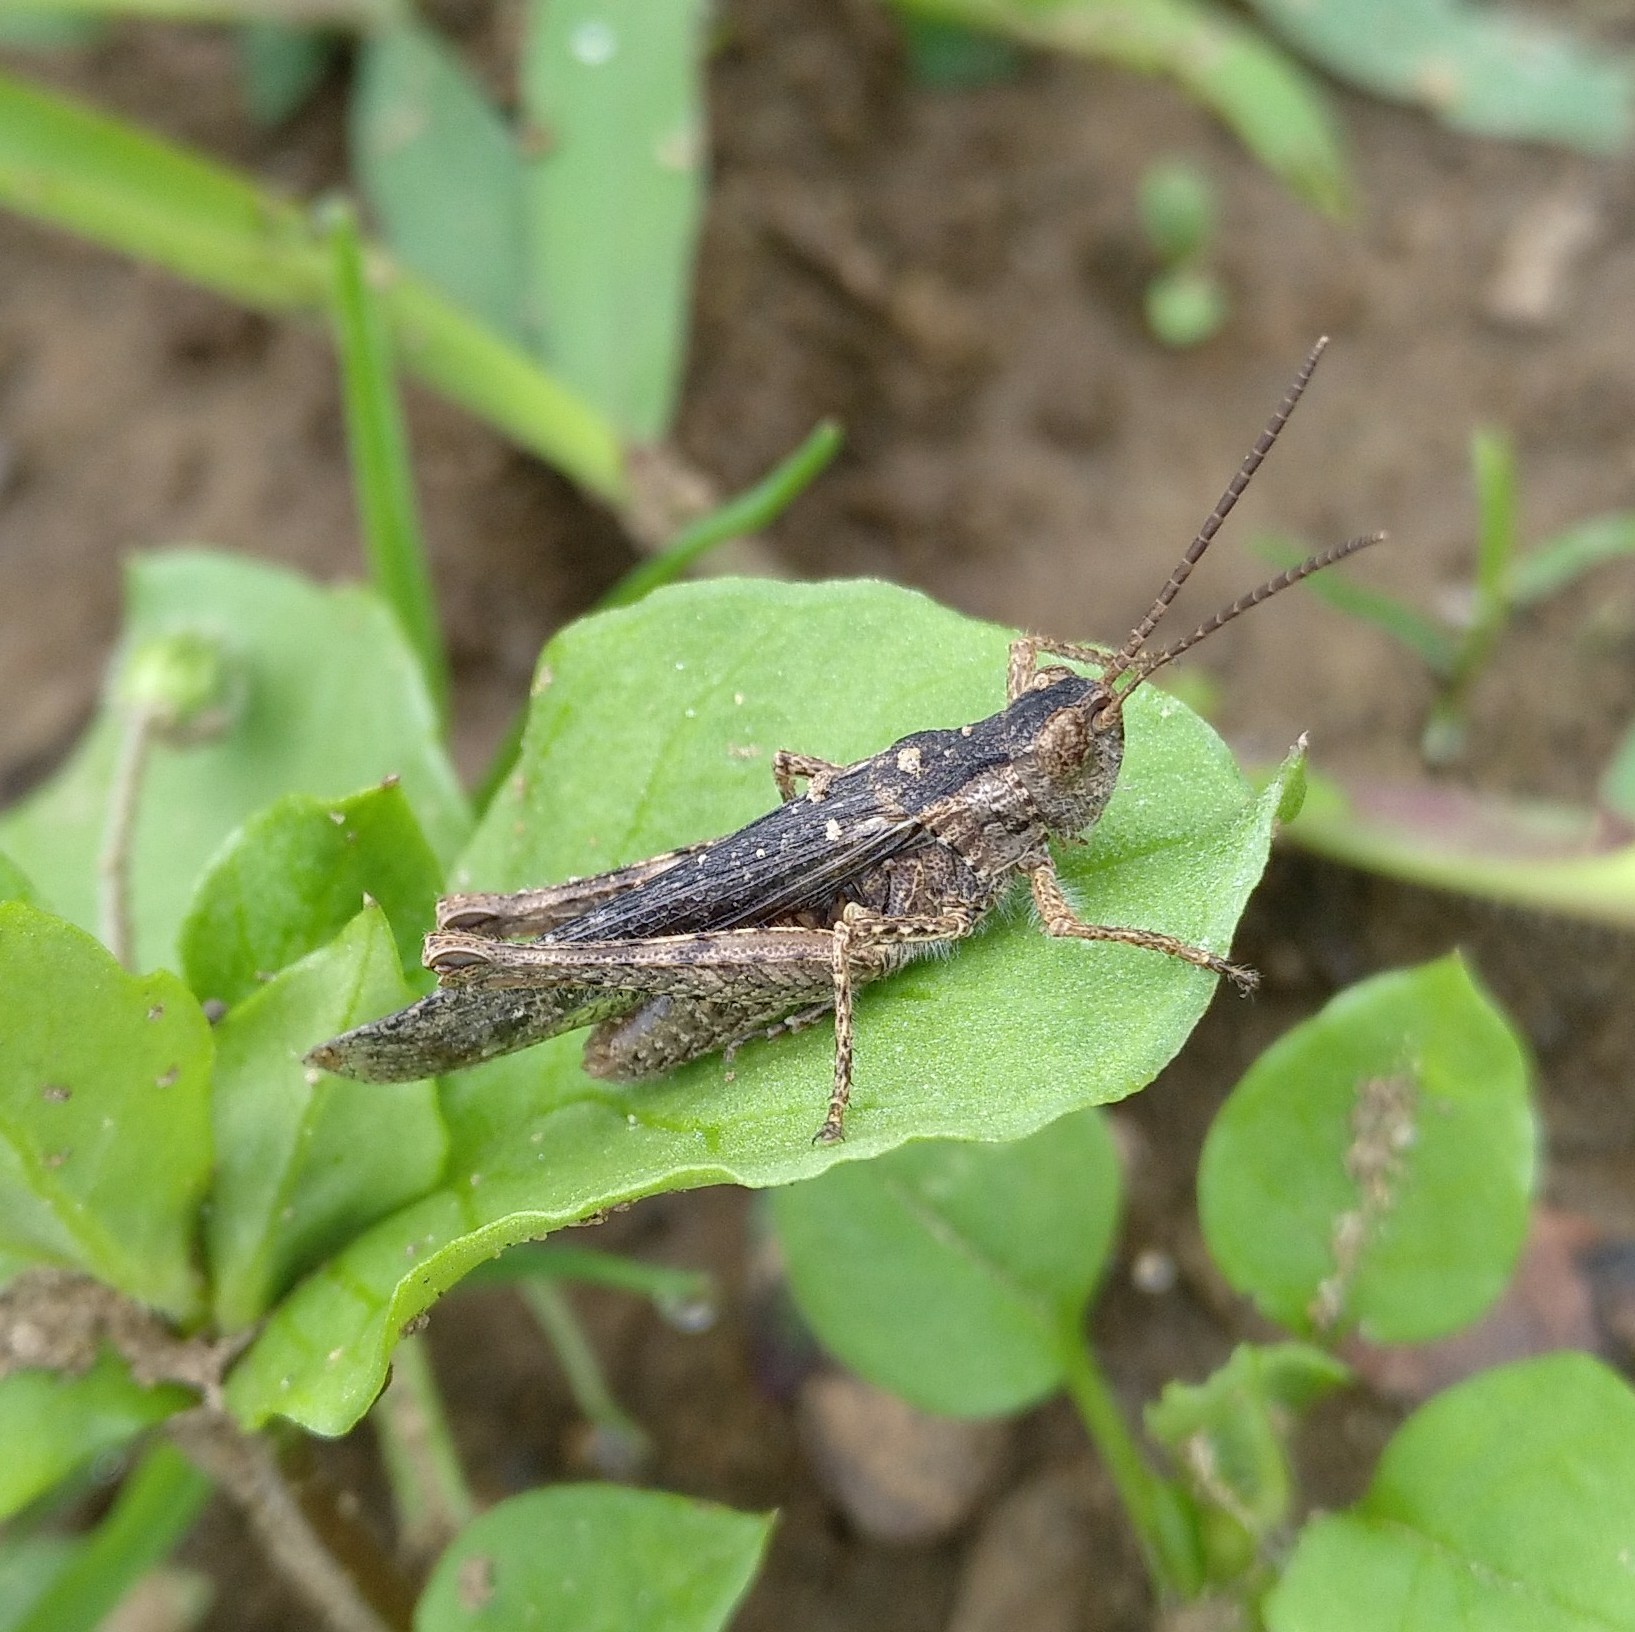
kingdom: Animalia
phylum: Arthropoda
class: Insecta
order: Orthoptera
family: Acrididae
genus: Chorthippus
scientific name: Chorthippus brunneus
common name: Field grasshopper
